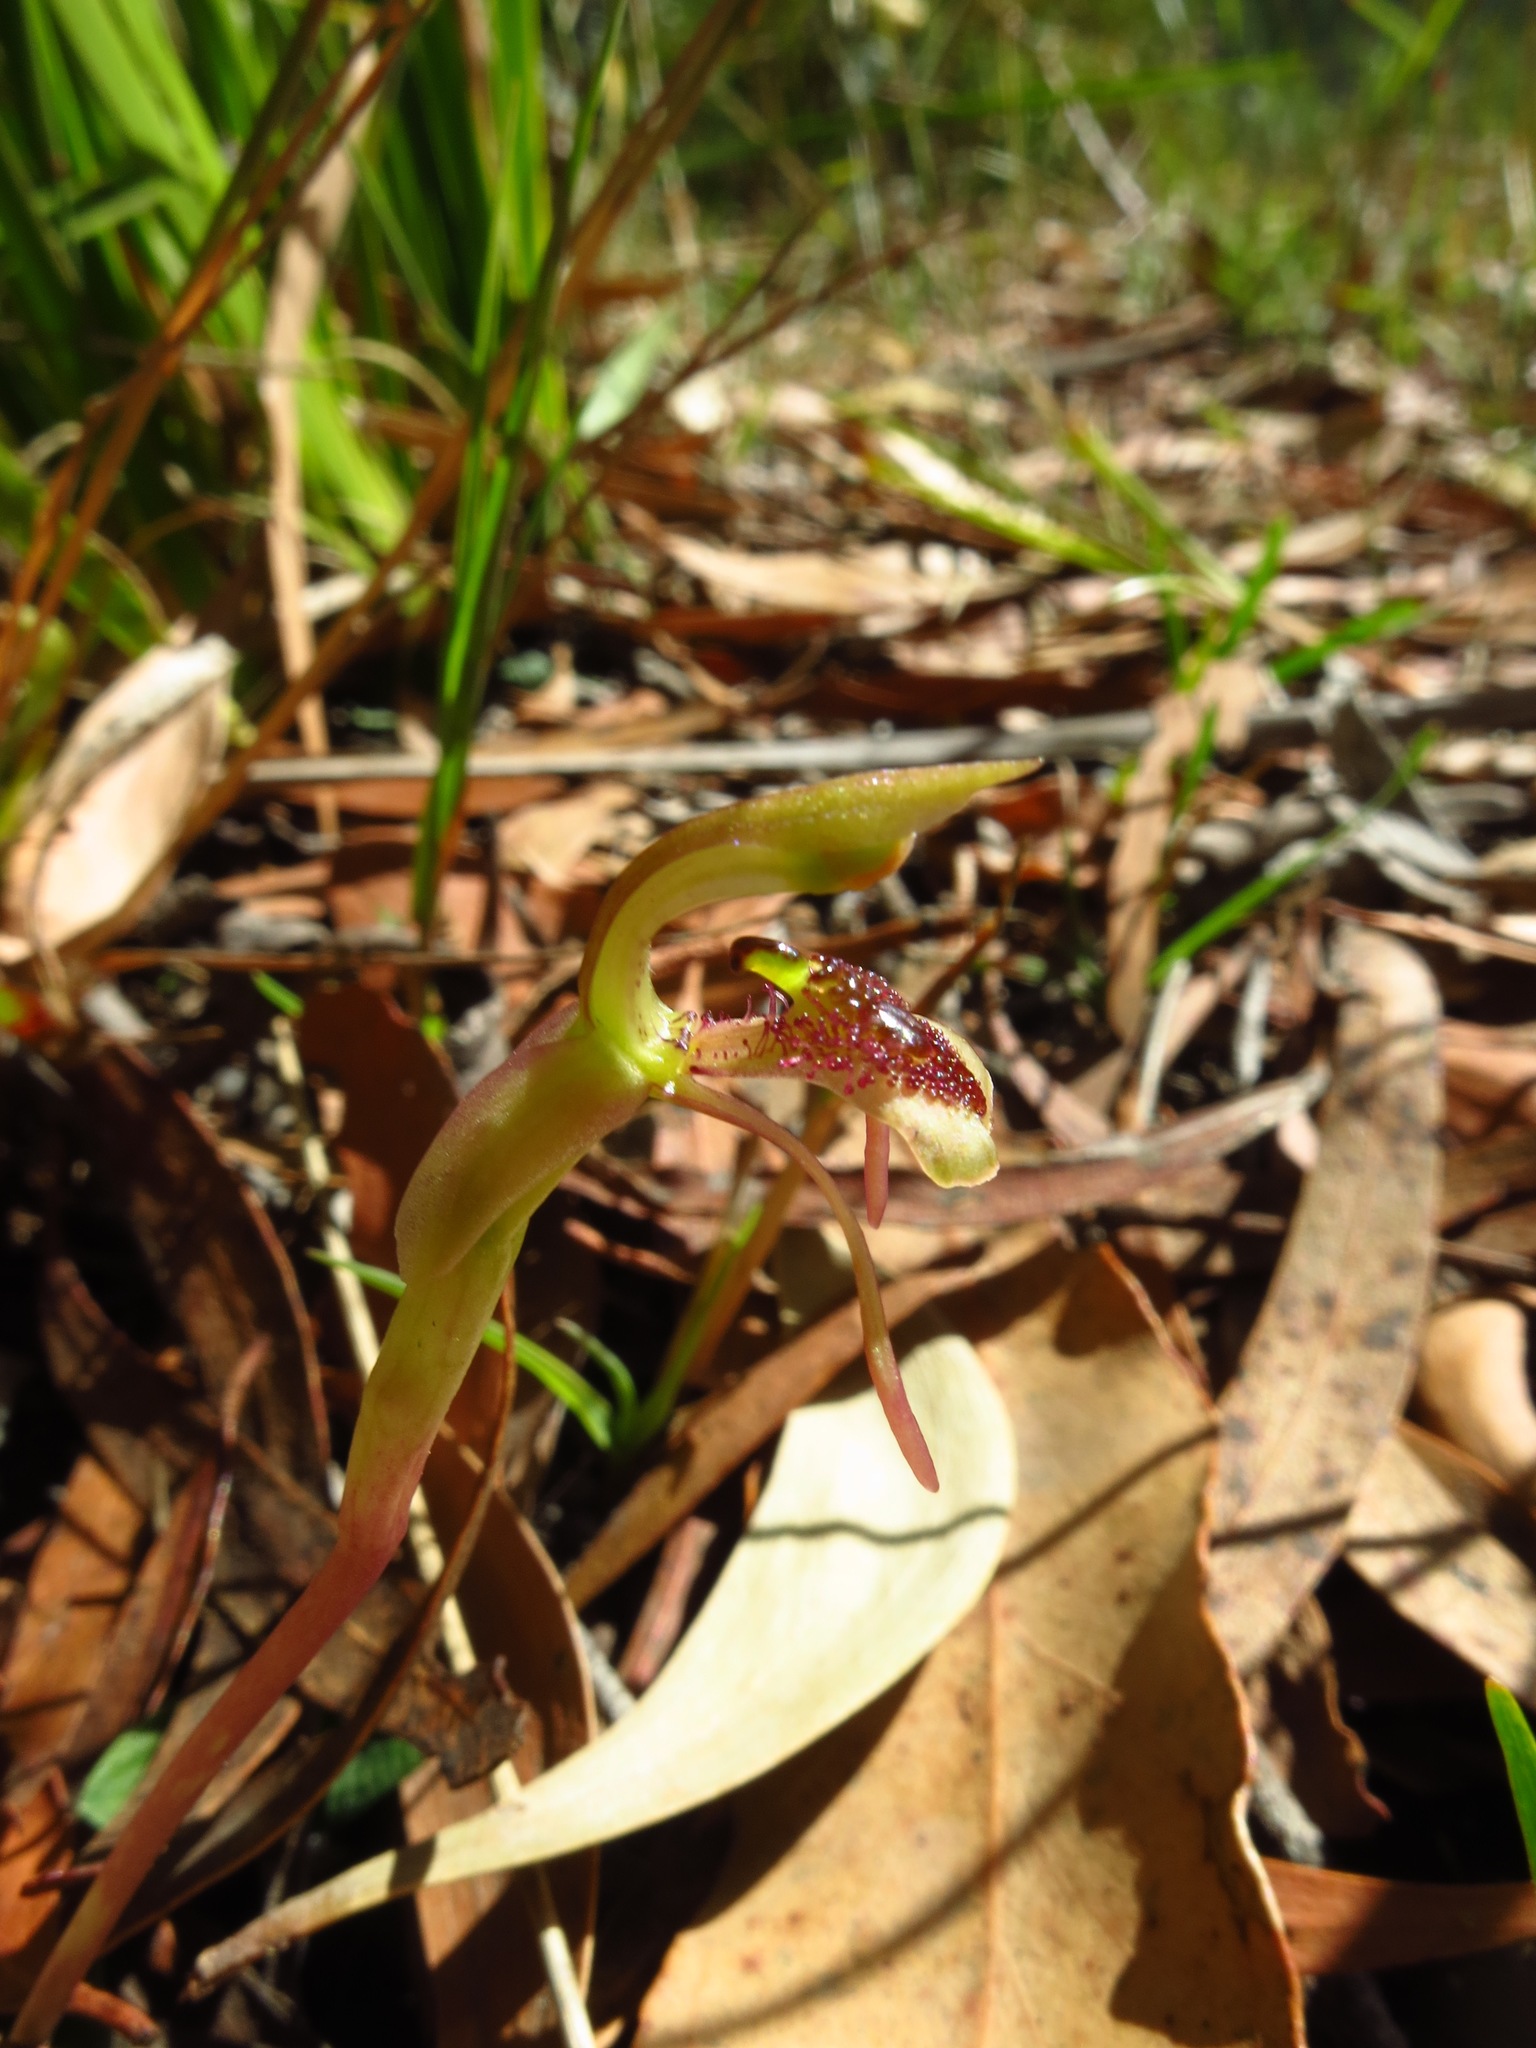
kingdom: Plantae
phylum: Tracheophyta
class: Liliopsida
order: Asparagales
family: Orchidaceae
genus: Chiloglottis
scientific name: Chiloglottis reflexa
